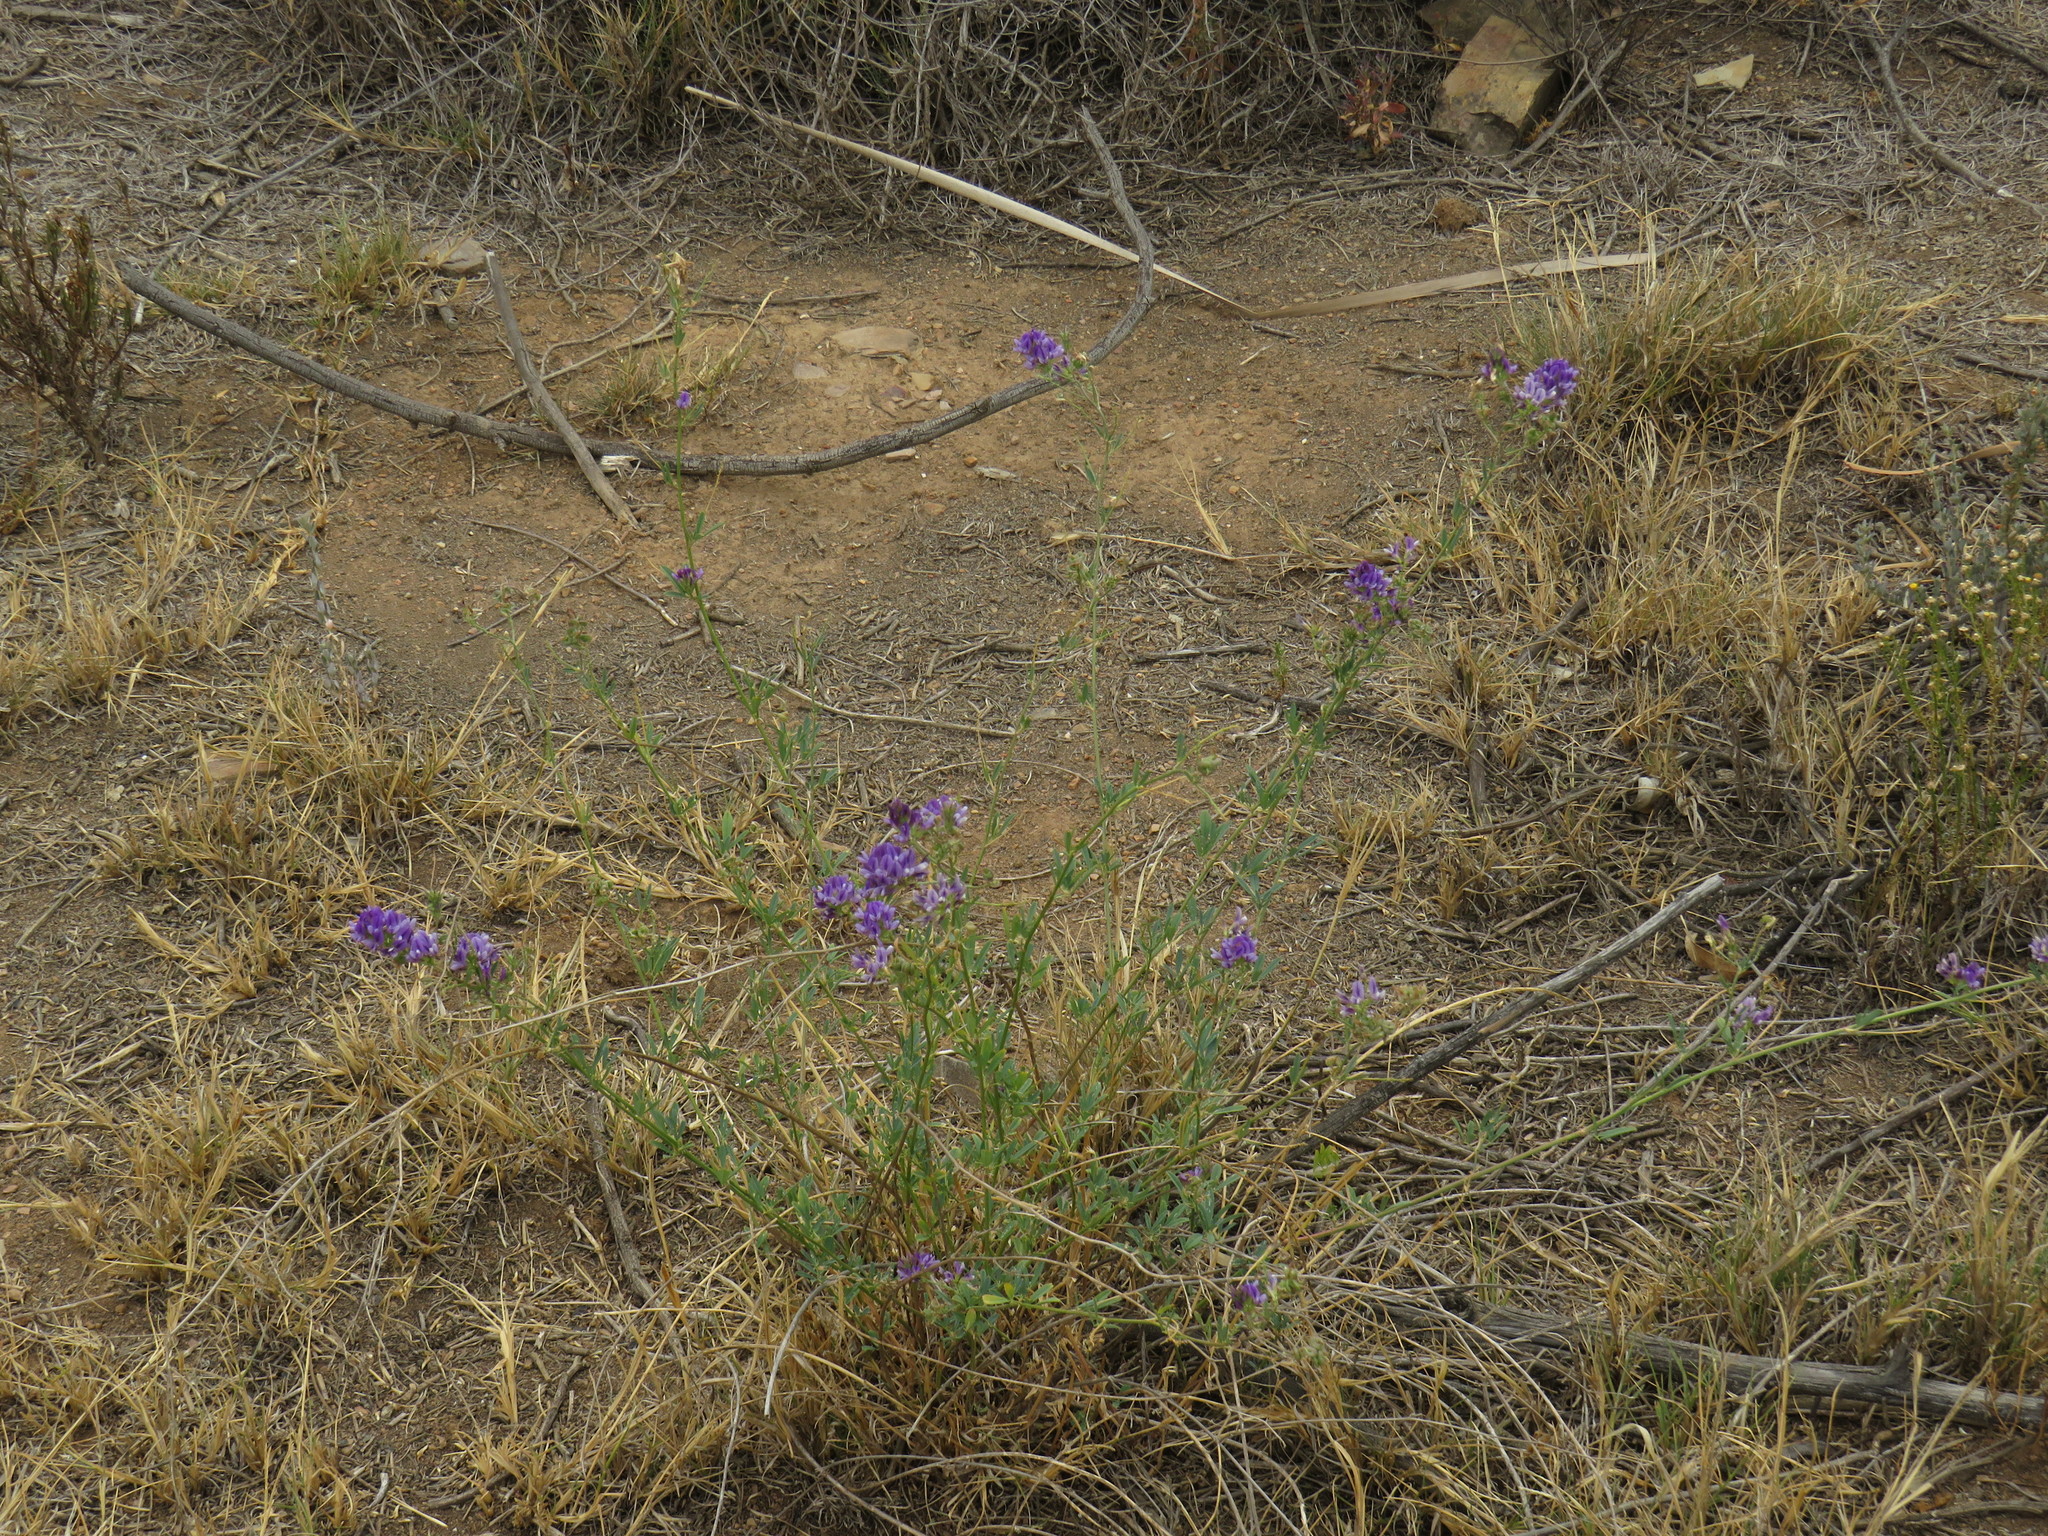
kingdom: Plantae
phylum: Tracheophyta
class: Magnoliopsida
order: Fabales
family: Fabaceae
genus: Medicago
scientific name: Medicago sativa
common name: Alfalfa
